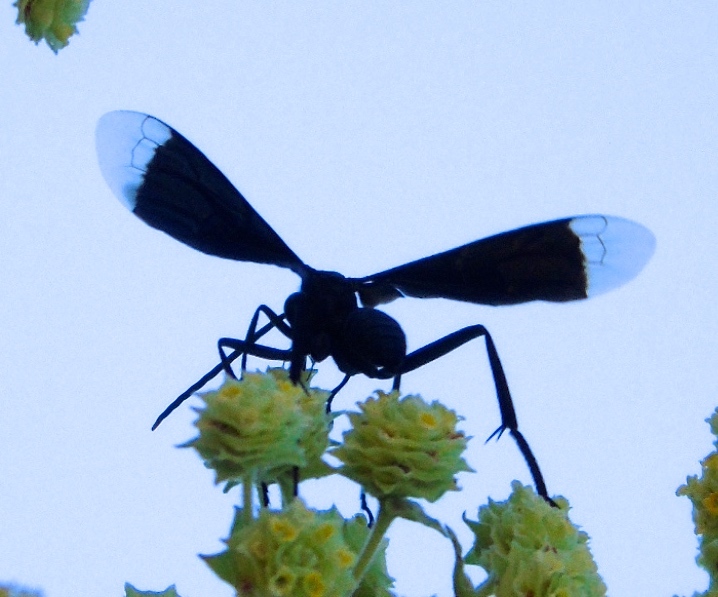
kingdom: Animalia
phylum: Arthropoda
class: Insecta
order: Hymenoptera
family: Pompilidae
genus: Pepsis
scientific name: Pepsis
